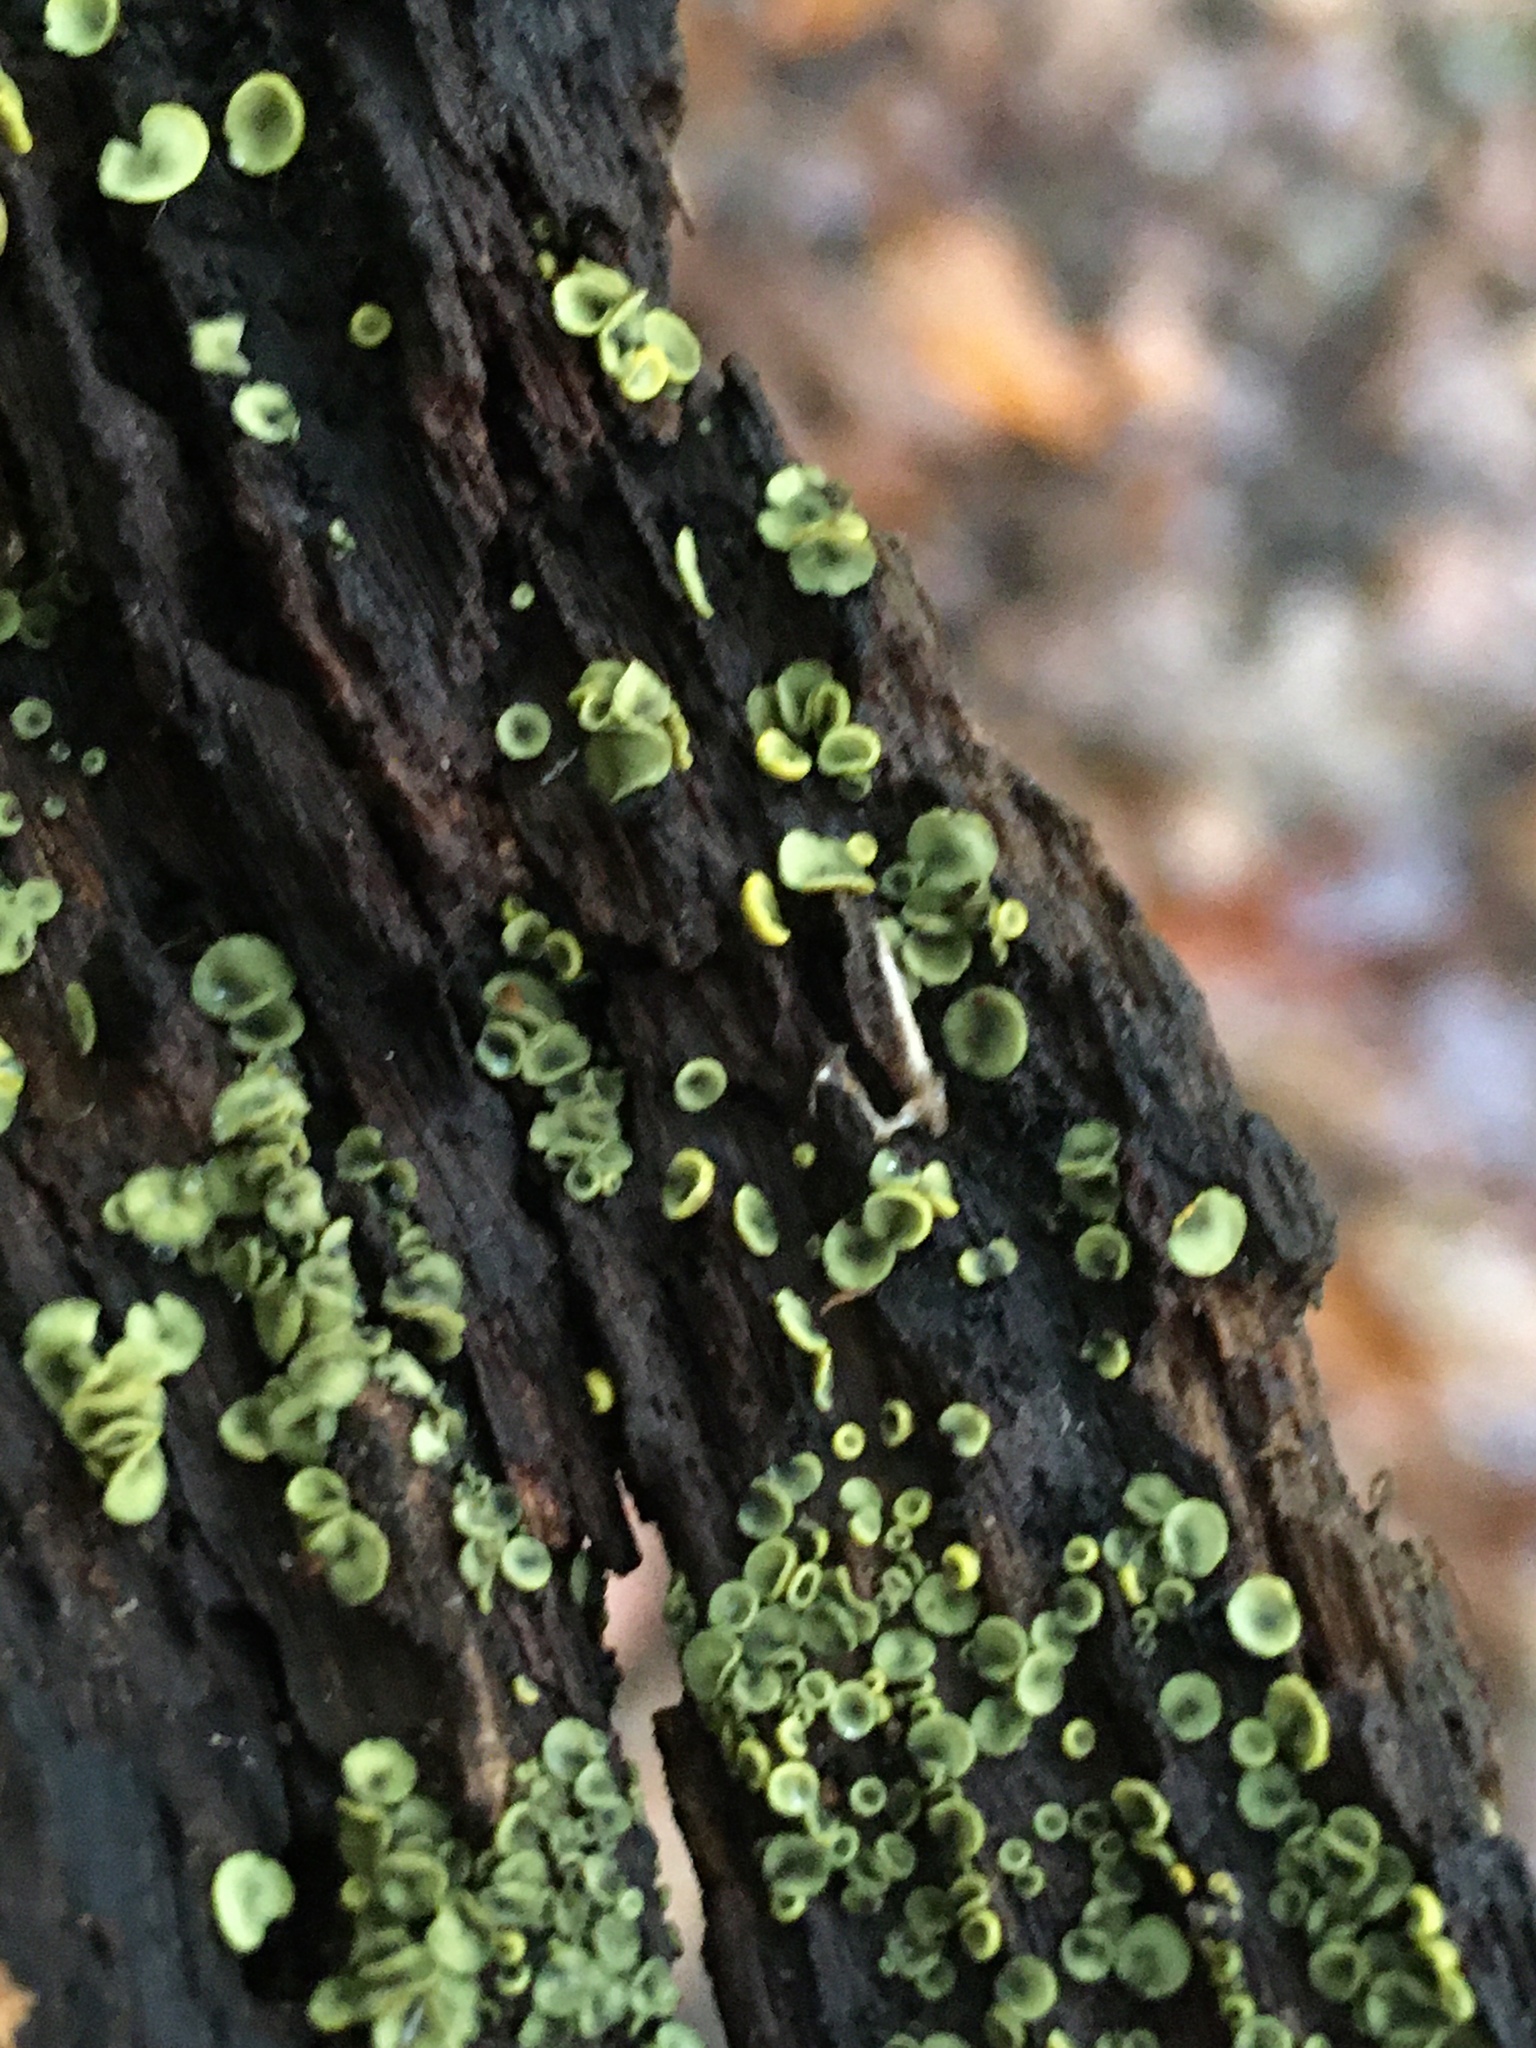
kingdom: Fungi
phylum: Ascomycota
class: Leotiomycetes
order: Helotiales
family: Chlorospleniaceae
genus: Chlorosplenium
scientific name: Chlorosplenium chlora
